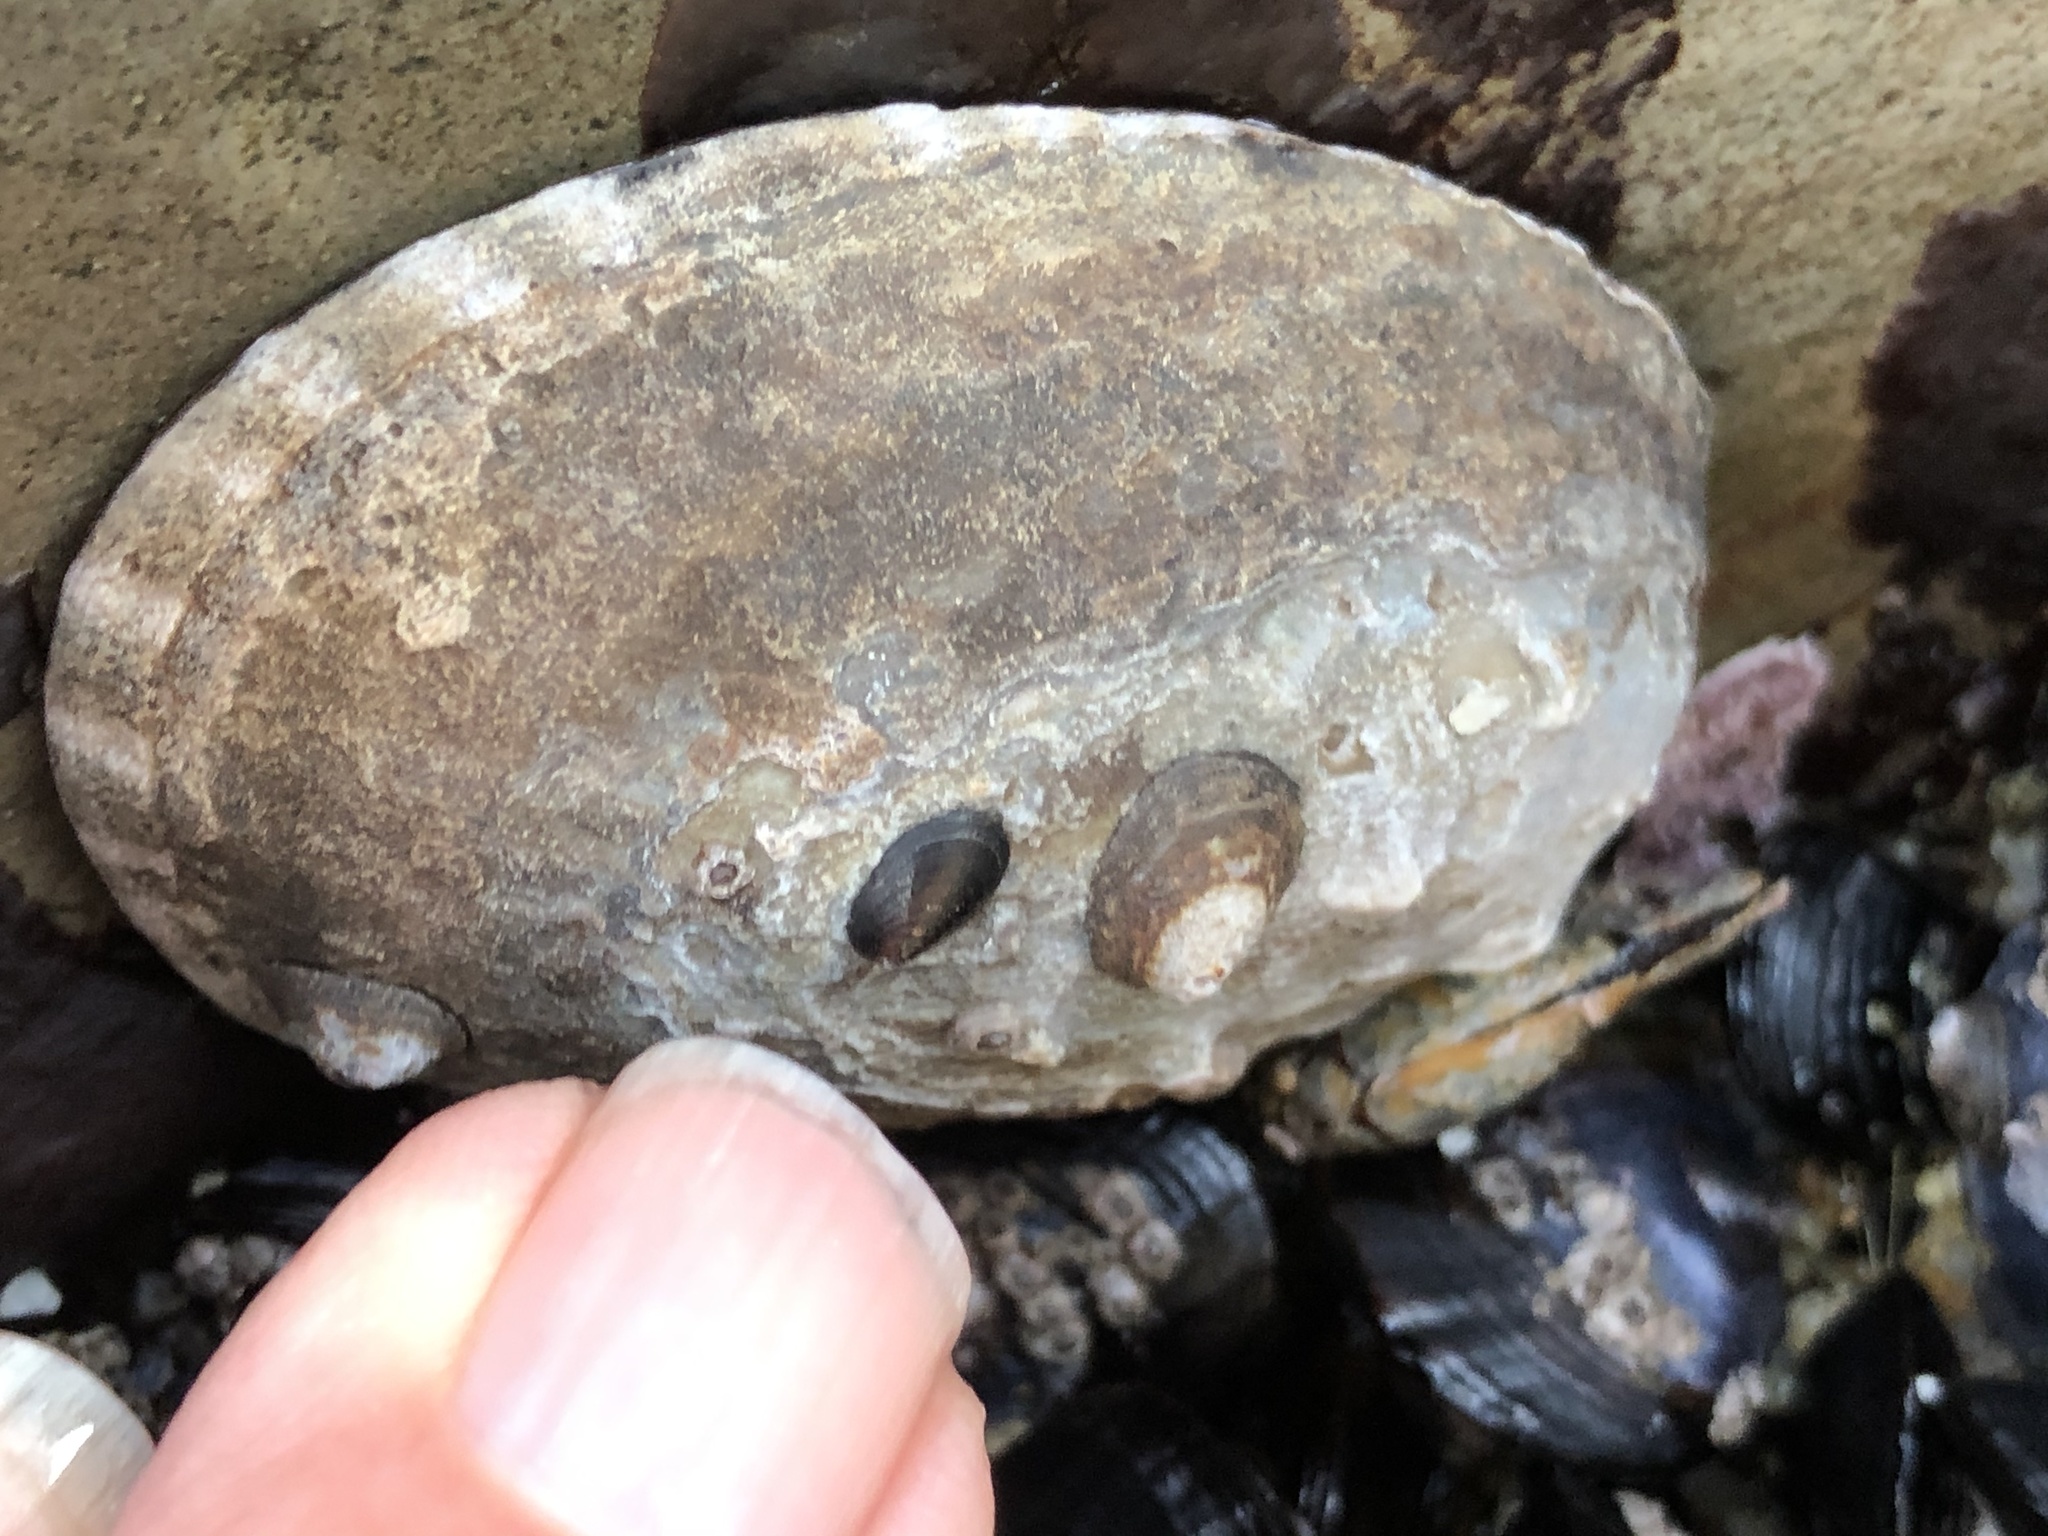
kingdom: Animalia
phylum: Mollusca
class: Gastropoda
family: Lottiidae
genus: Lottia
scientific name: Lottia gigantea
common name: Owl limpet
